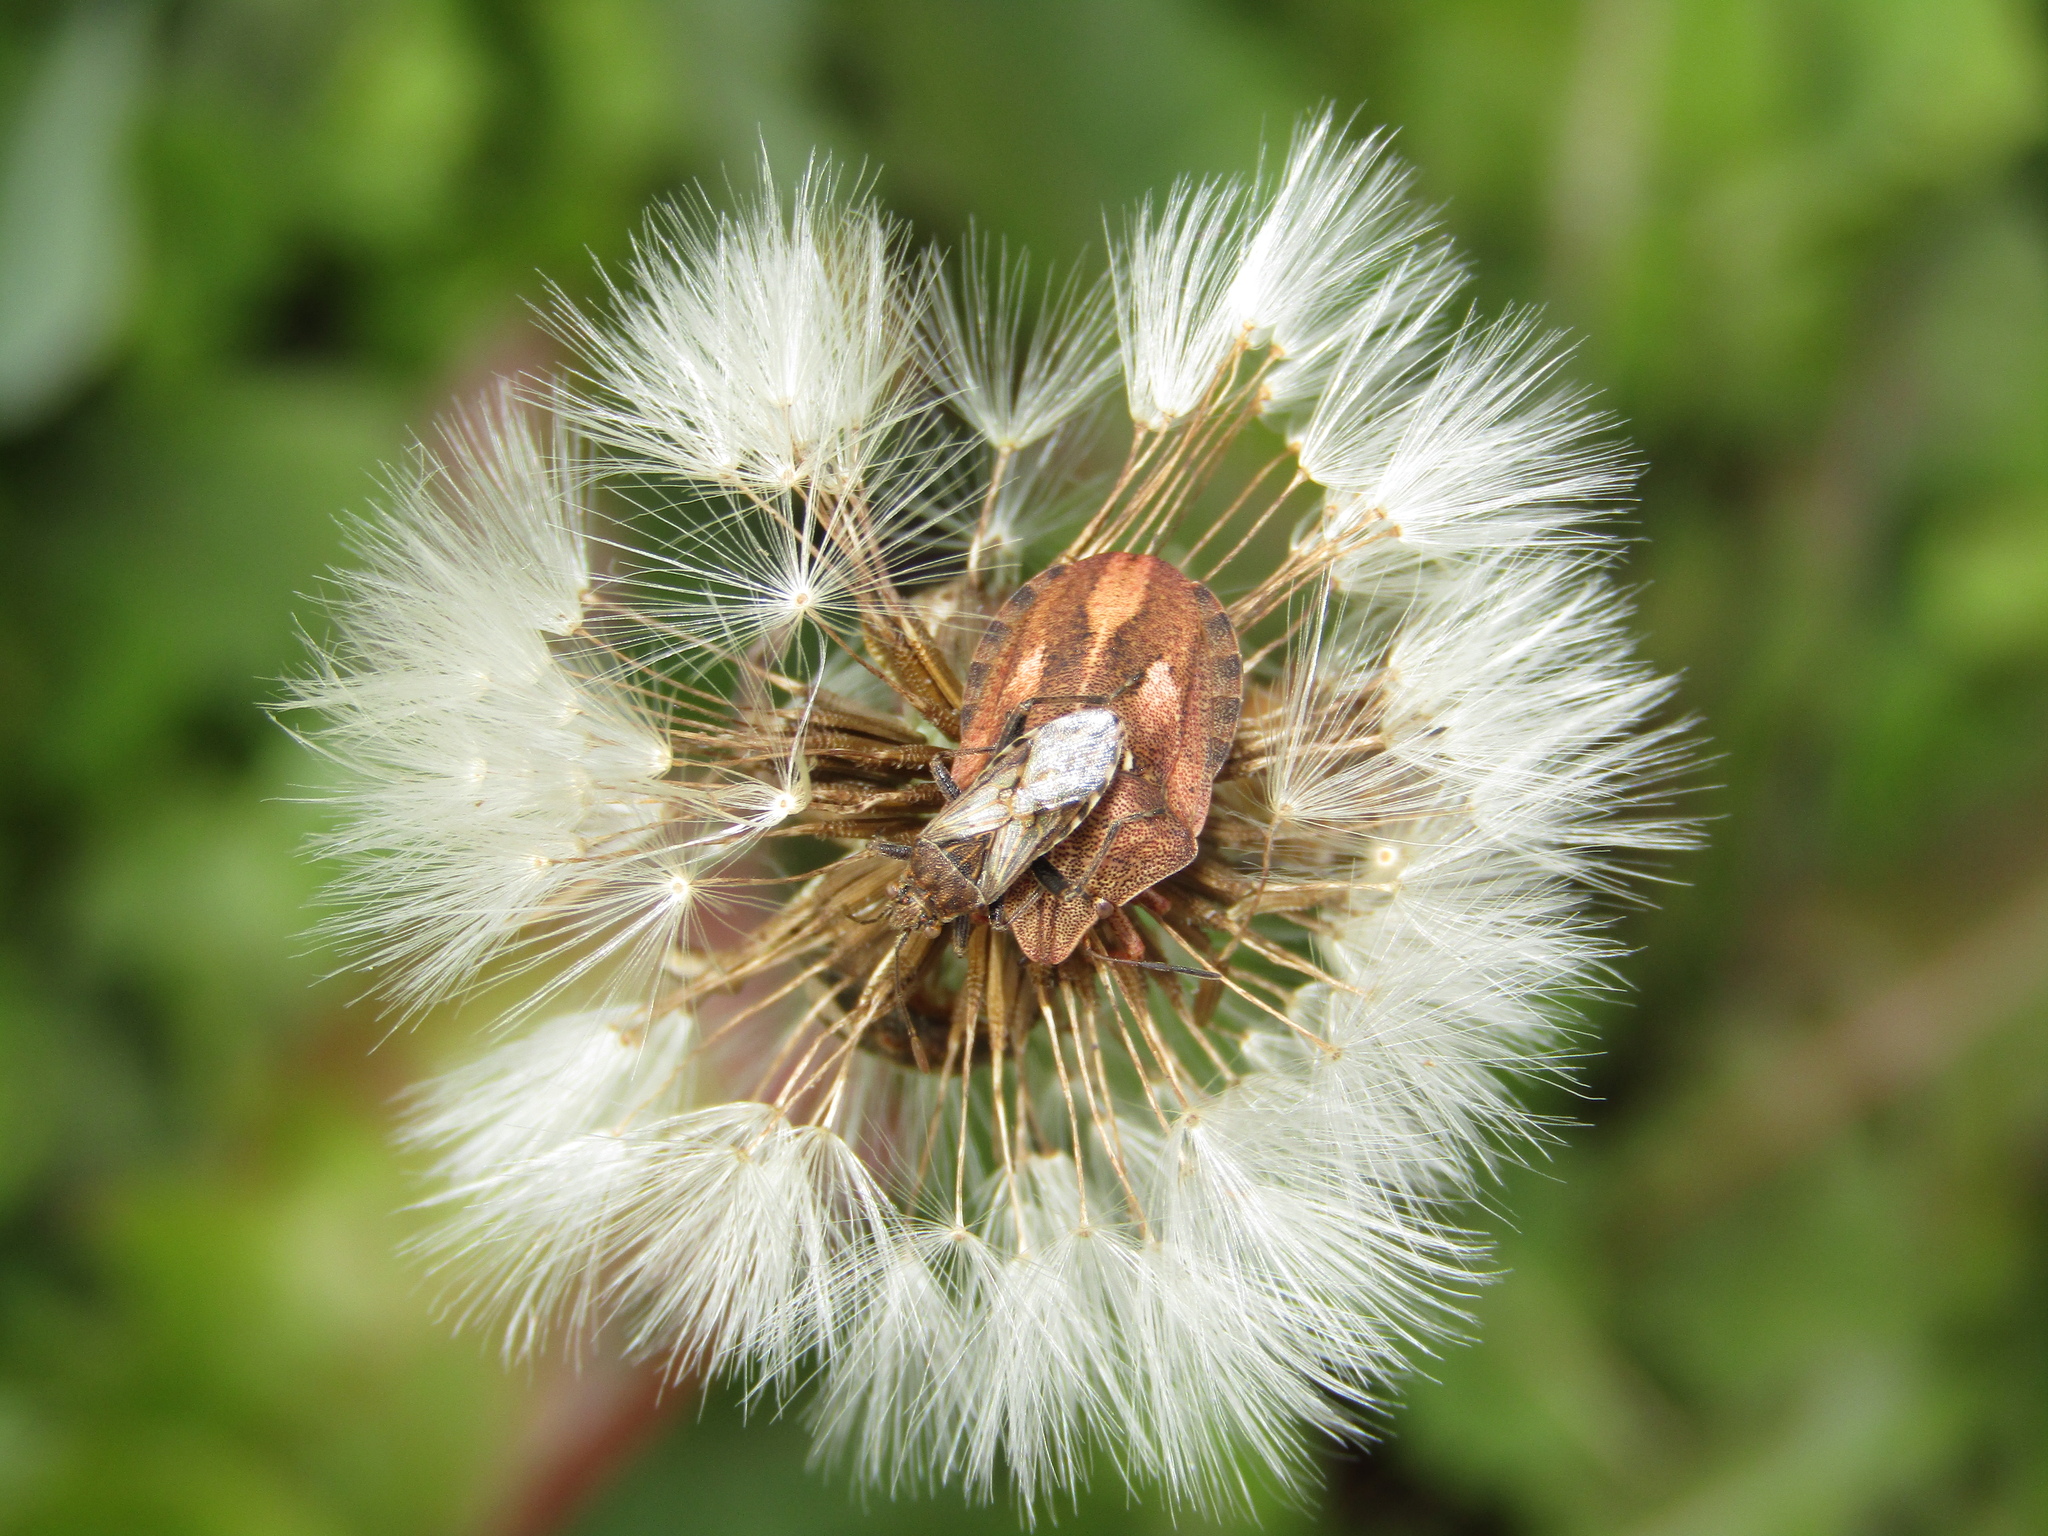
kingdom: Animalia
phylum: Arthropoda
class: Insecta
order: Hemiptera
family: Scutelleridae
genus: Eurygaster
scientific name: Eurygaster testudinaria
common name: Tortoise bug
